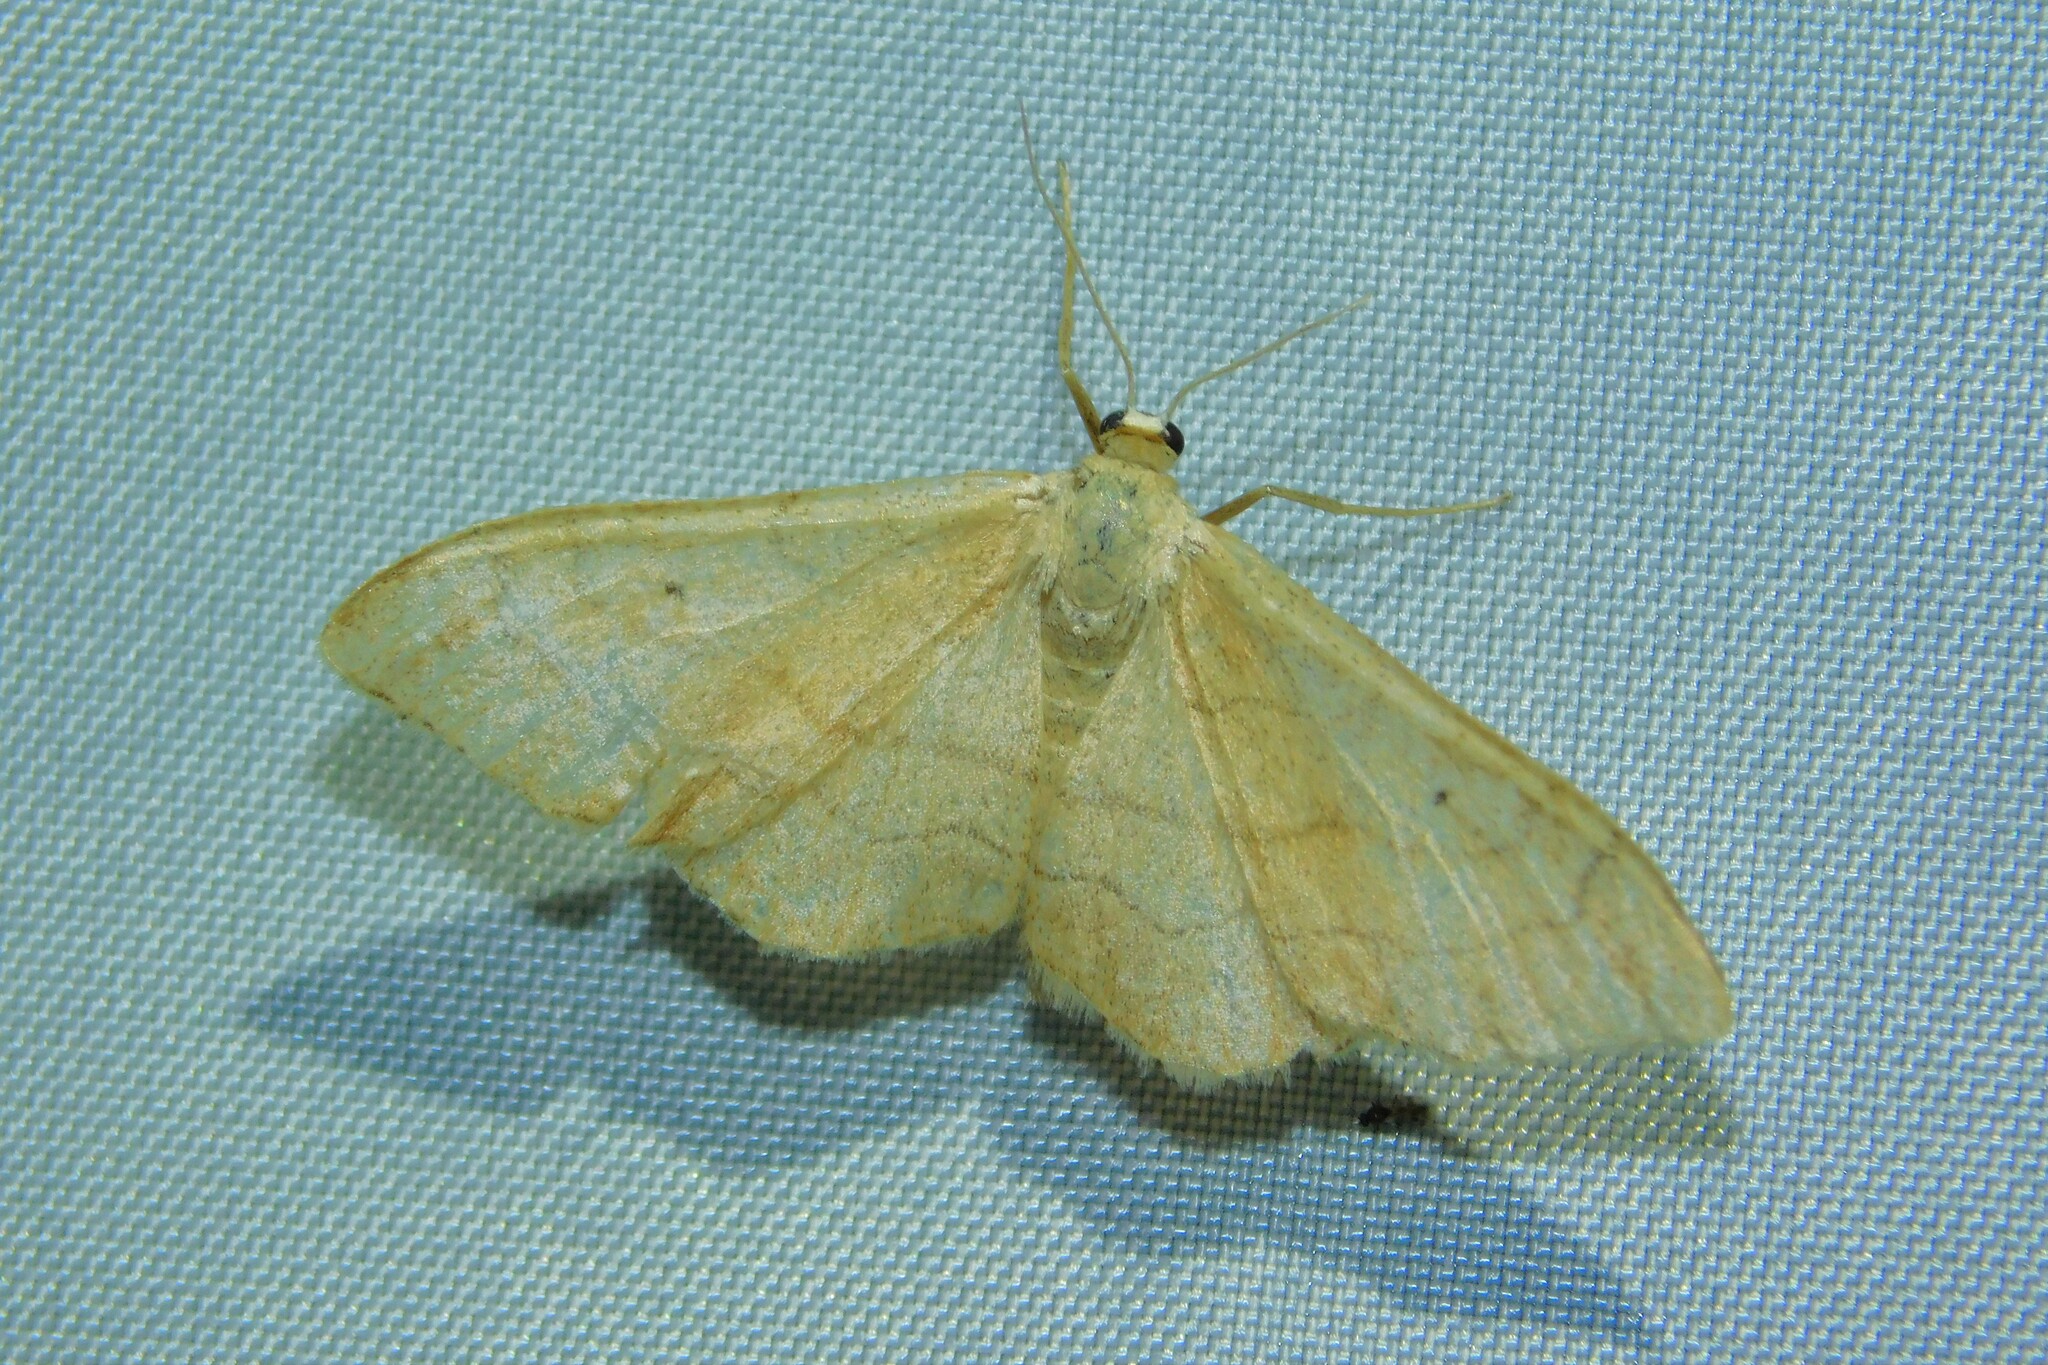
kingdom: Animalia
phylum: Arthropoda
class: Insecta
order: Lepidoptera
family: Geometridae
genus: Idaea
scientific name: Idaea straminata
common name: Plain wave
